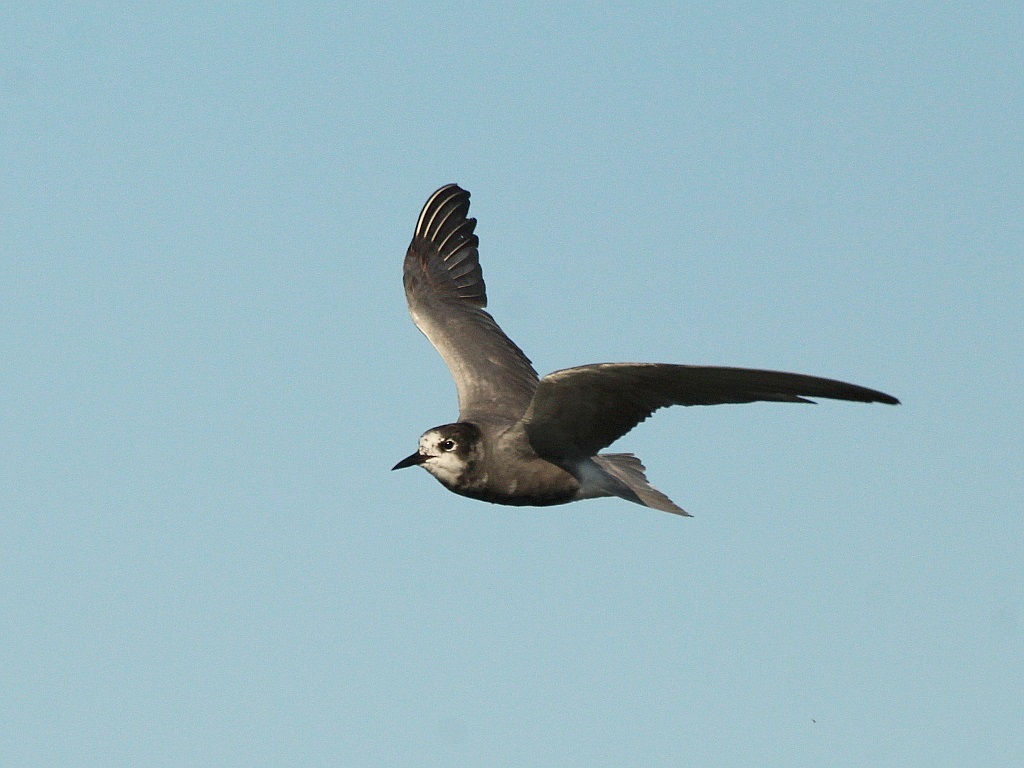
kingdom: Animalia
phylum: Chordata
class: Aves
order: Charadriiformes
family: Laridae
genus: Chlidonias
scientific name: Chlidonias niger
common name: Black tern
